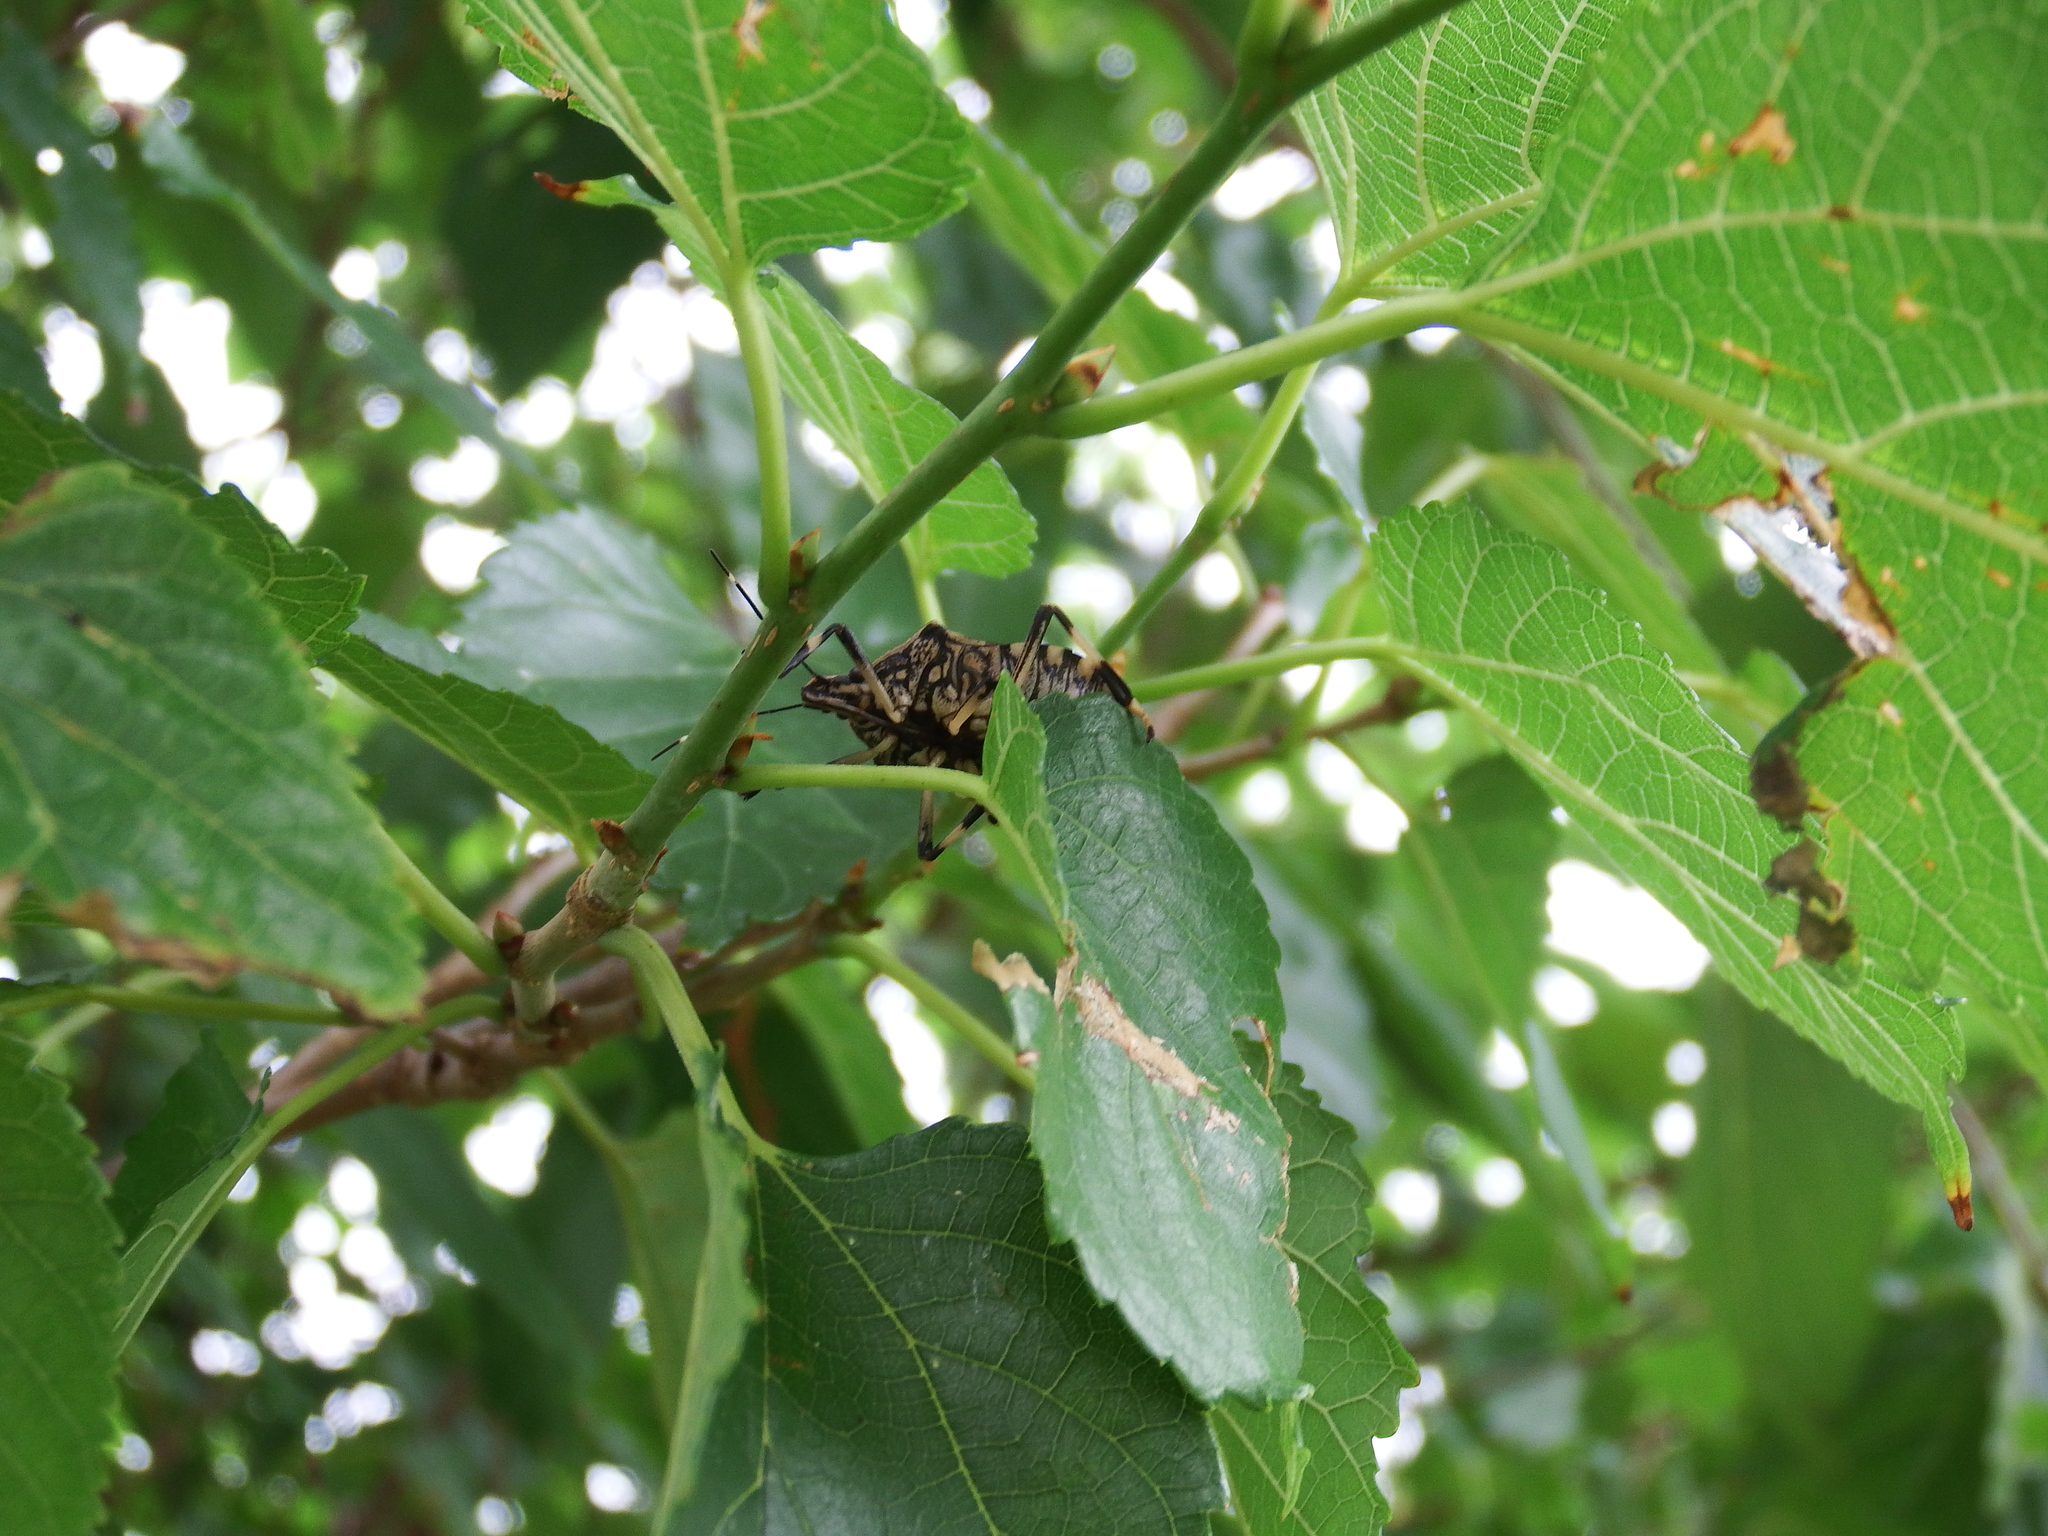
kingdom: Animalia
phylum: Arthropoda
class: Insecta
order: Hemiptera
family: Pentatomidae
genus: Erthesina
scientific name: Erthesina fullo
